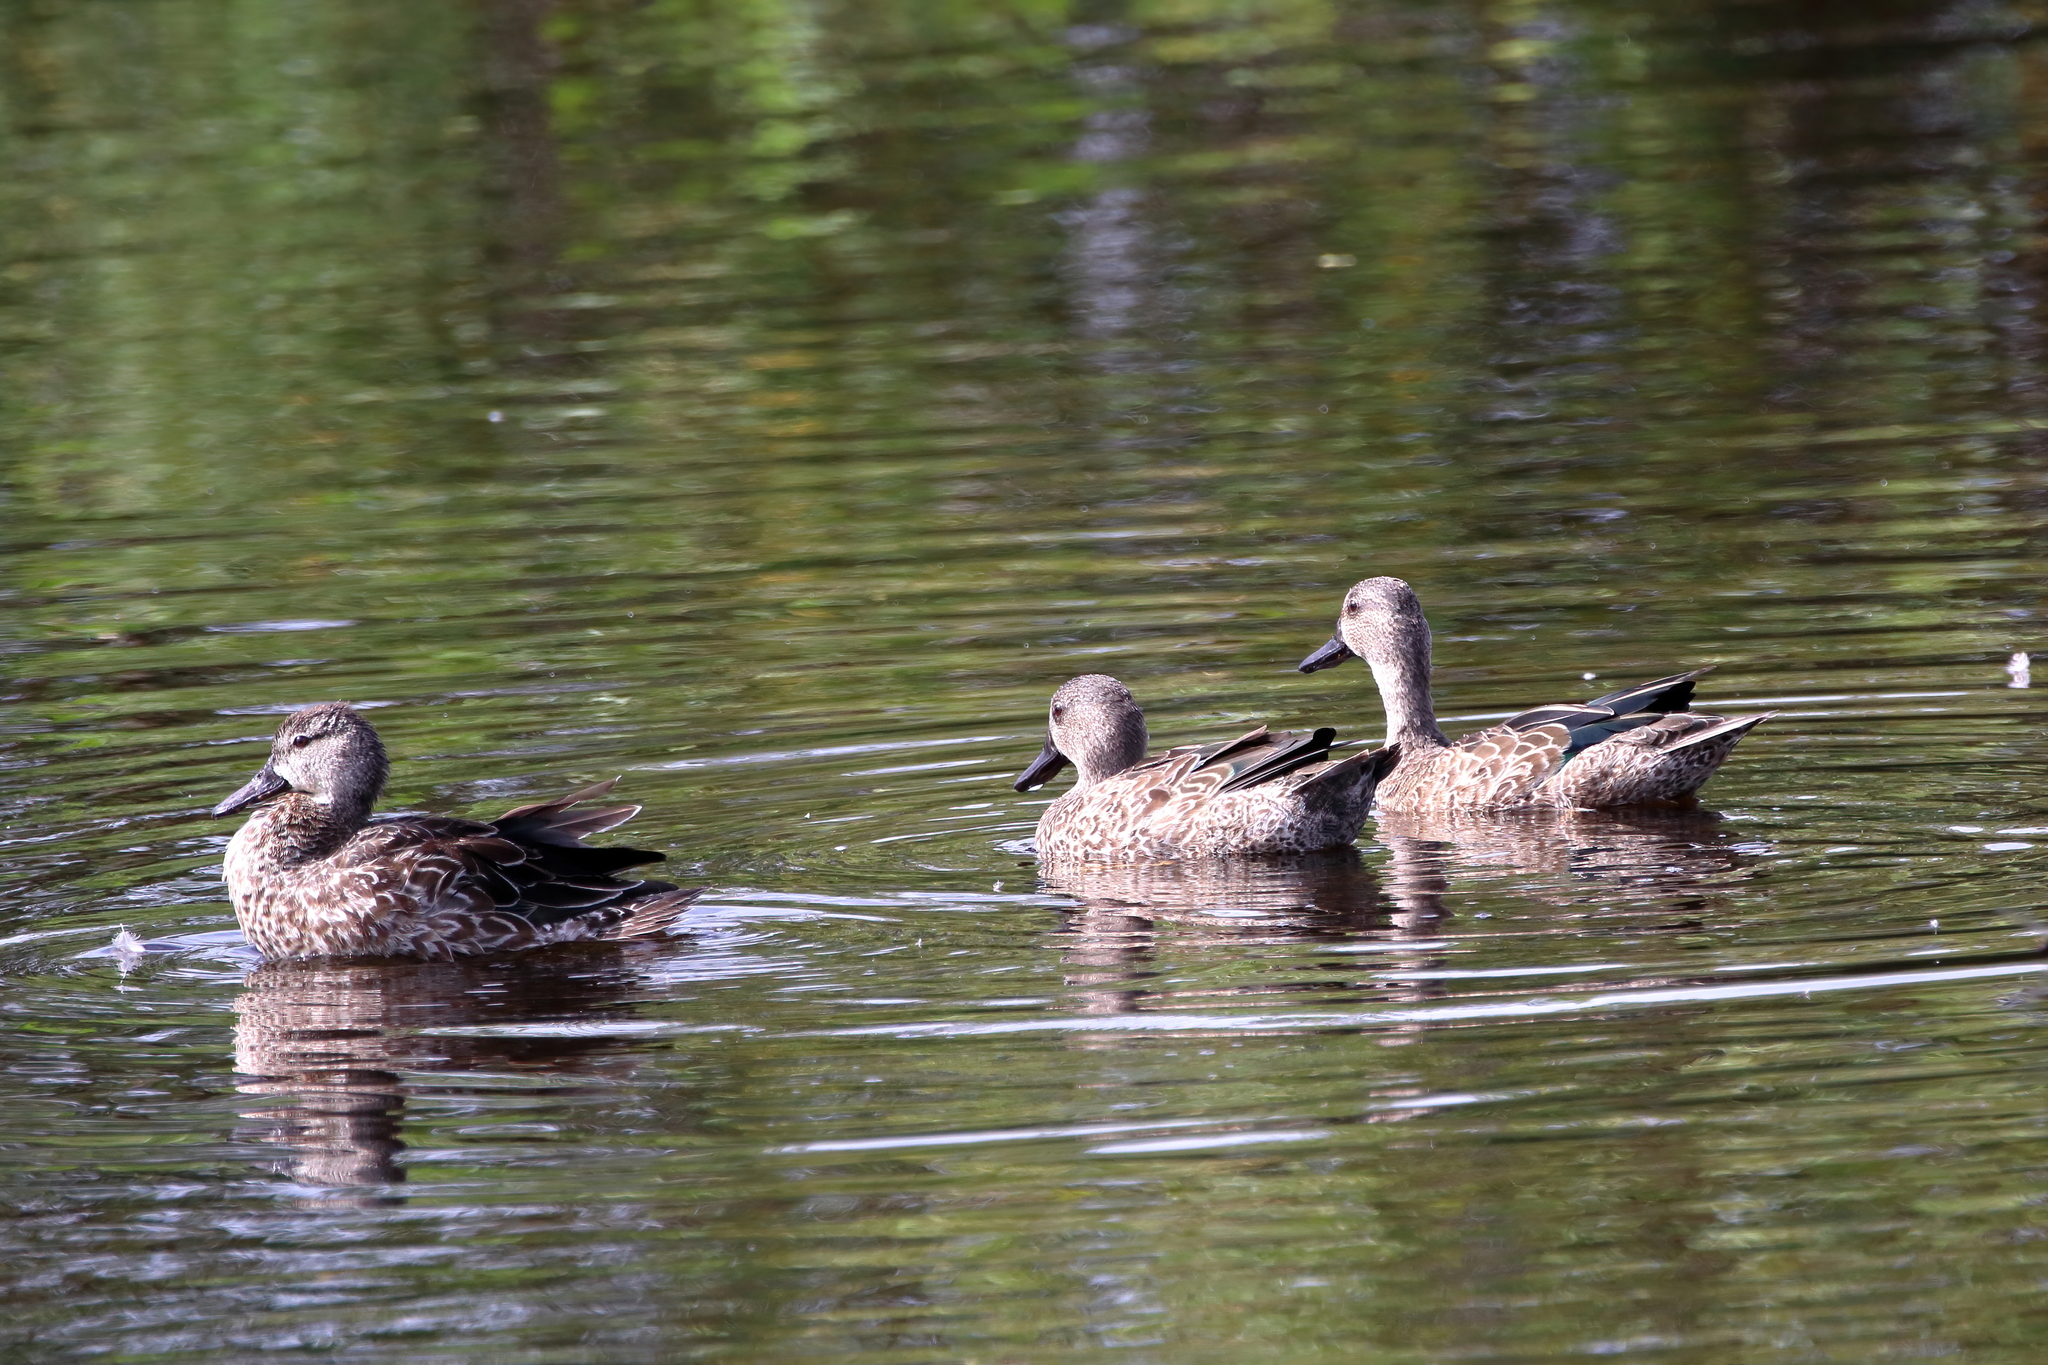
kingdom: Animalia
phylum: Chordata
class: Aves
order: Anseriformes
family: Anatidae
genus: Spatula
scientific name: Spatula discors
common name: Blue-winged teal
